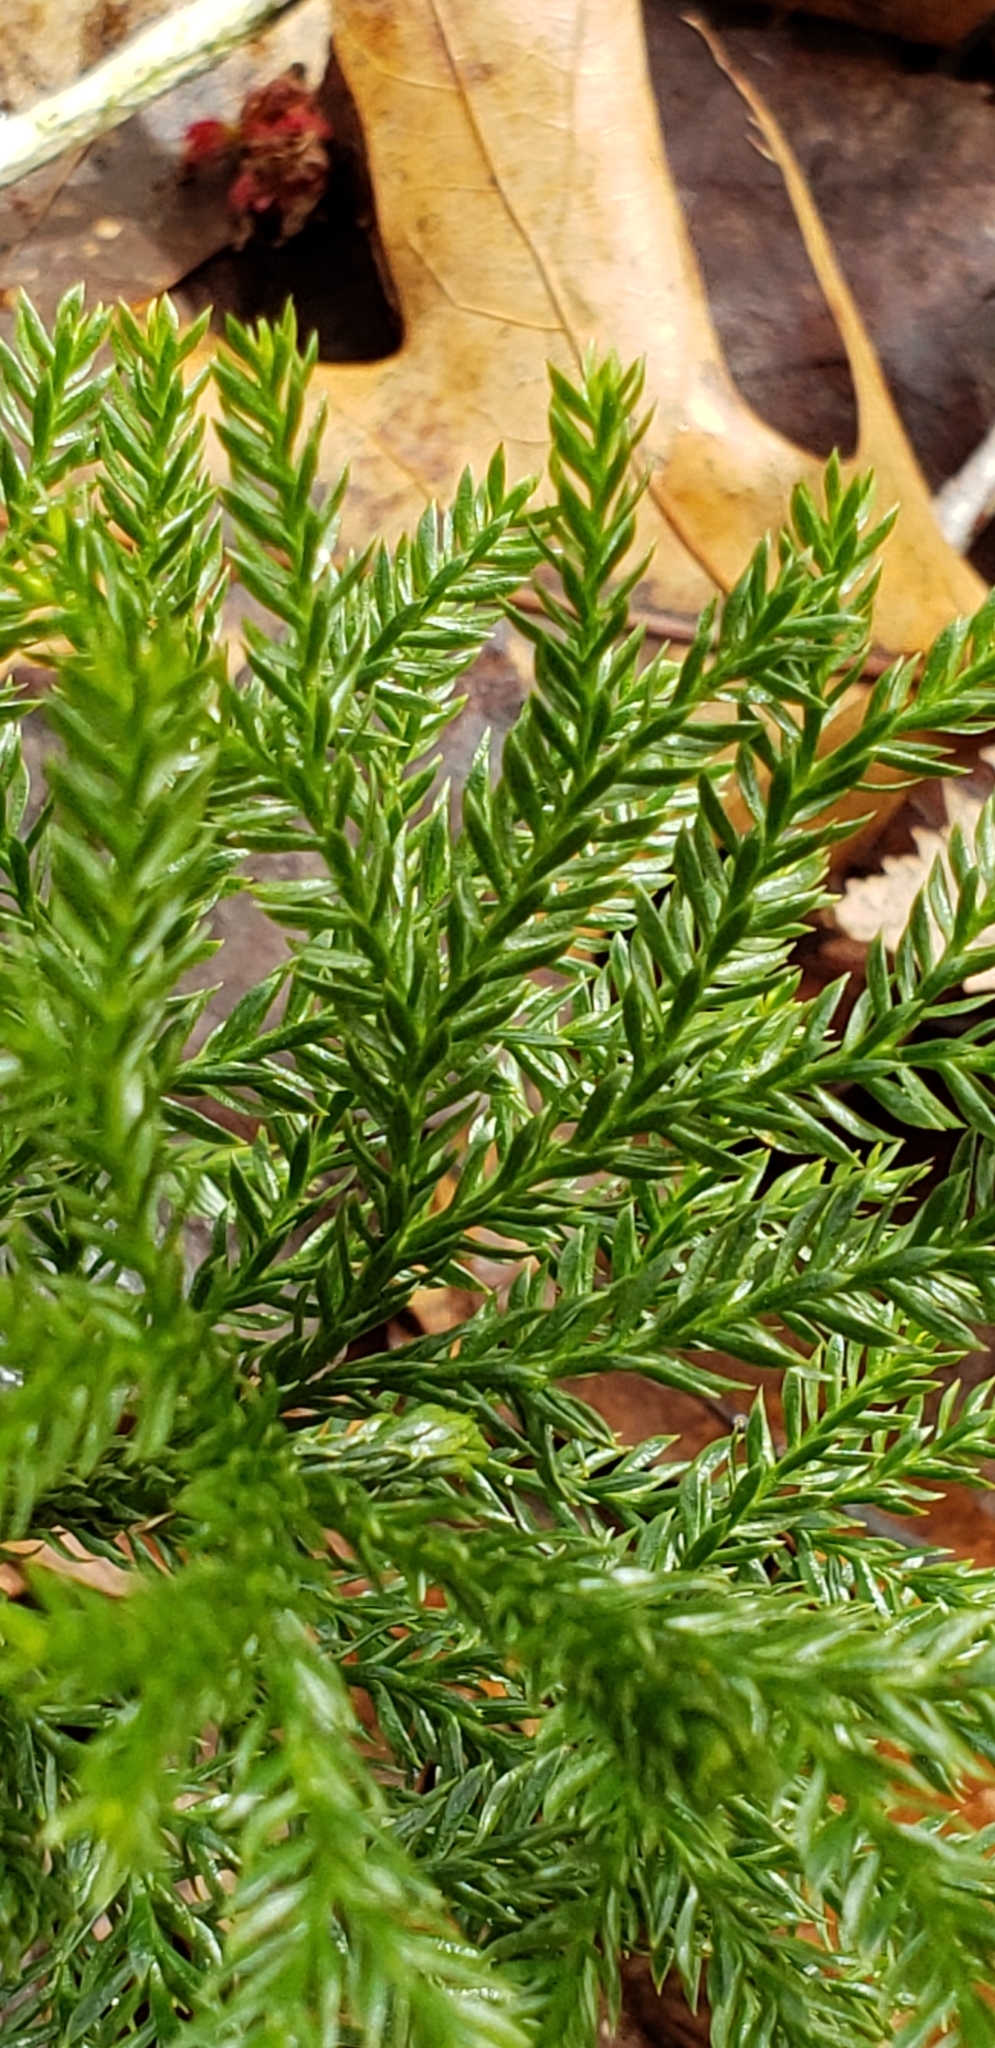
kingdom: Plantae
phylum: Tracheophyta
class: Lycopodiopsida
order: Lycopodiales
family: Lycopodiaceae
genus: Dendrolycopodium
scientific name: Dendrolycopodium obscurum
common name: Common ground-pine
